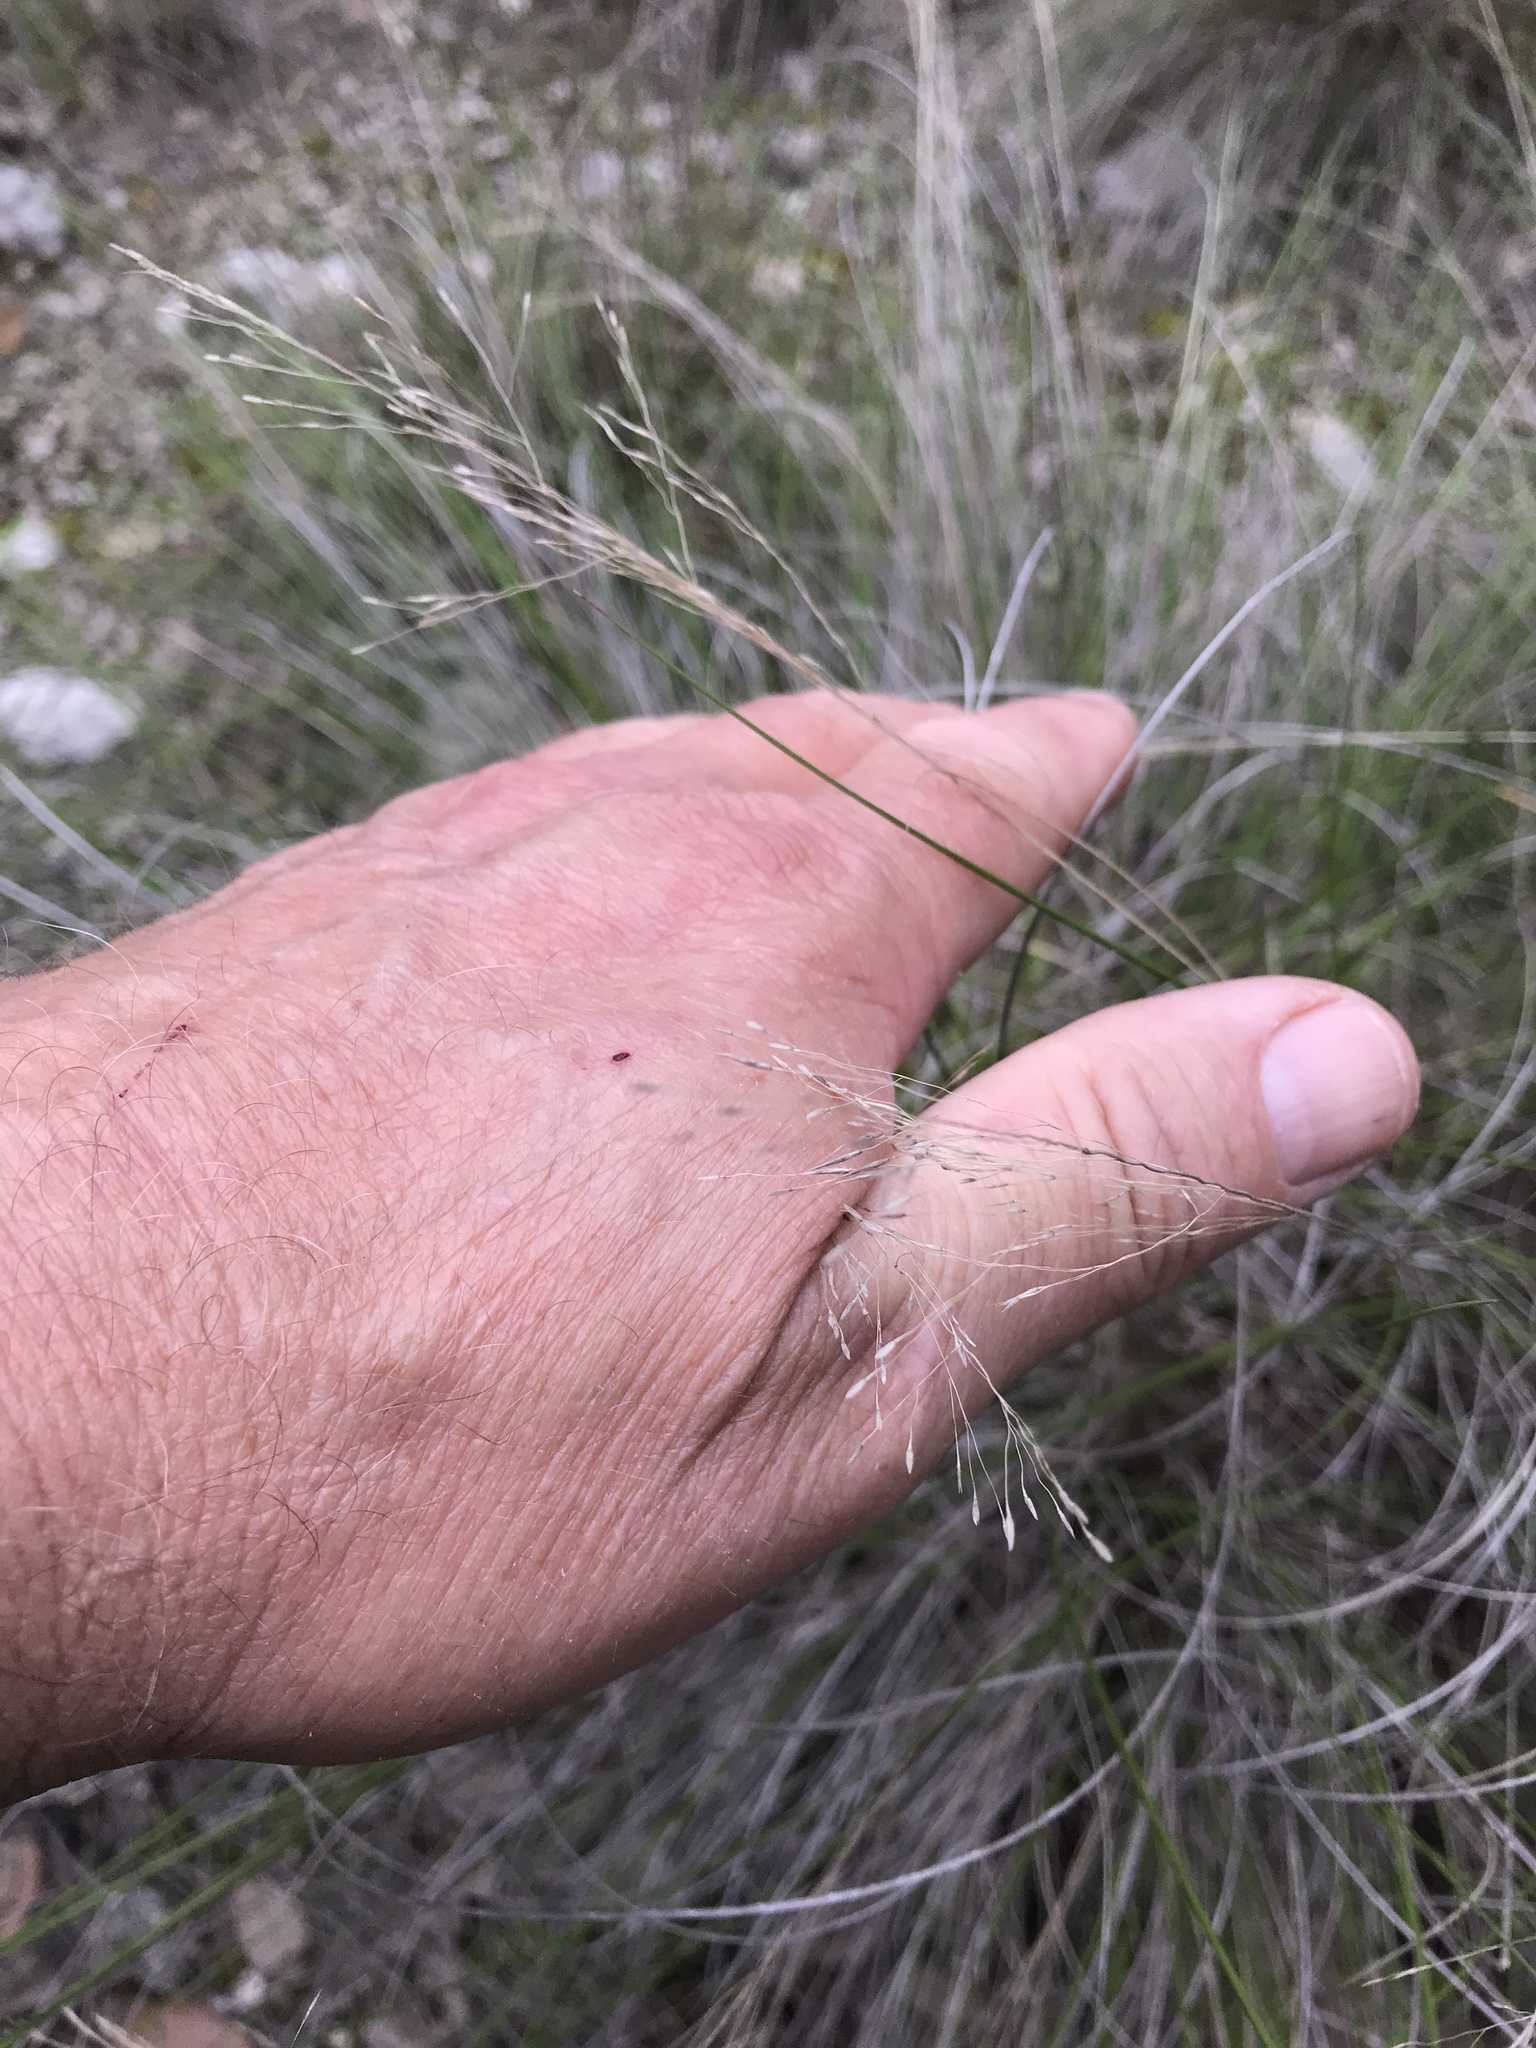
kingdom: Plantae
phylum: Tracheophyta
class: Liliopsida
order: Poales
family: Poaceae
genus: Muhlenbergia
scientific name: Muhlenbergia reverchonii
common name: Seep muhly
